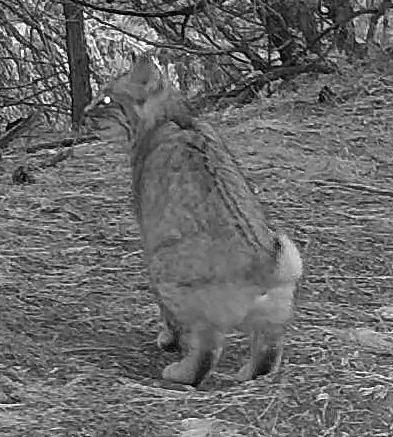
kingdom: Animalia
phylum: Chordata
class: Mammalia
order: Carnivora
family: Felidae
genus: Lynx
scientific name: Lynx rufus
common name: Bobcat
